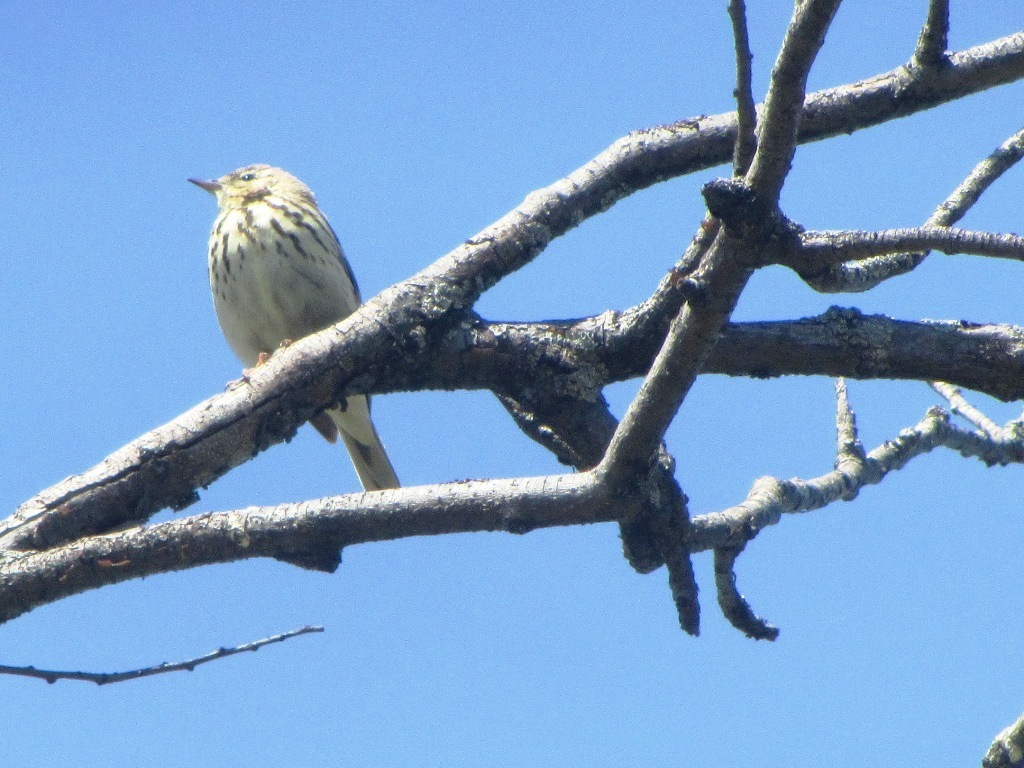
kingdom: Animalia
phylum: Chordata
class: Aves
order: Passeriformes
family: Motacillidae
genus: Anthus
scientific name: Anthus trivialis
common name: Tree pipit
